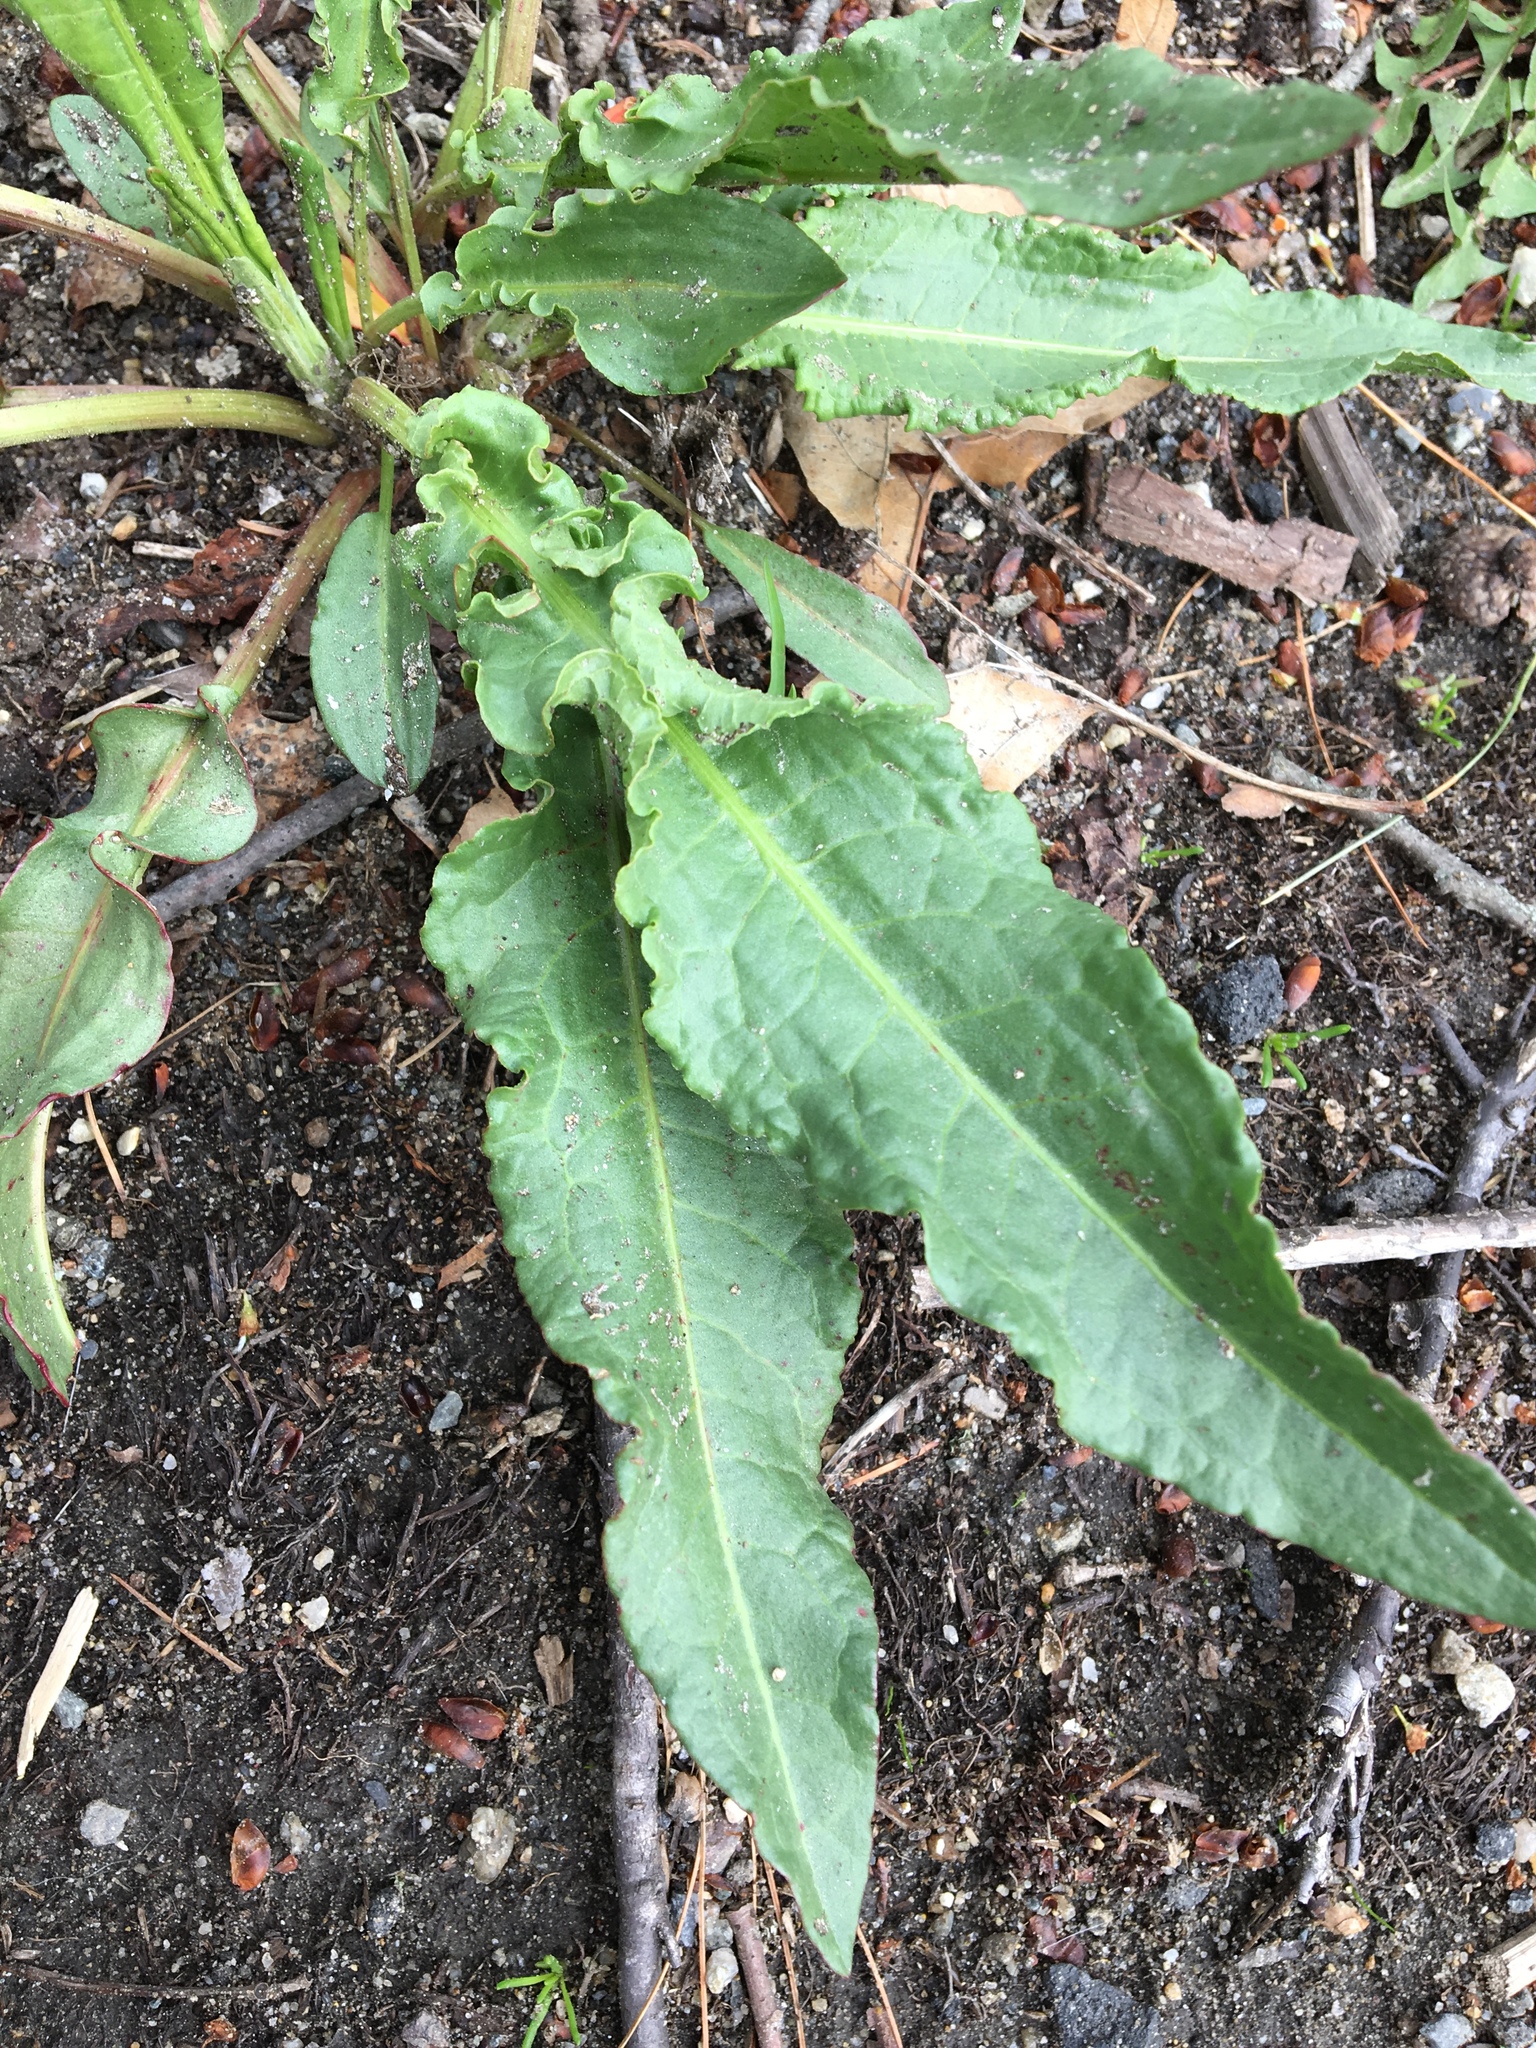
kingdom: Plantae
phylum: Tracheophyta
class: Magnoliopsida
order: Caryophyllales
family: Polygonaceae
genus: Rumex
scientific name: Rumex crispus
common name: Curled dock
